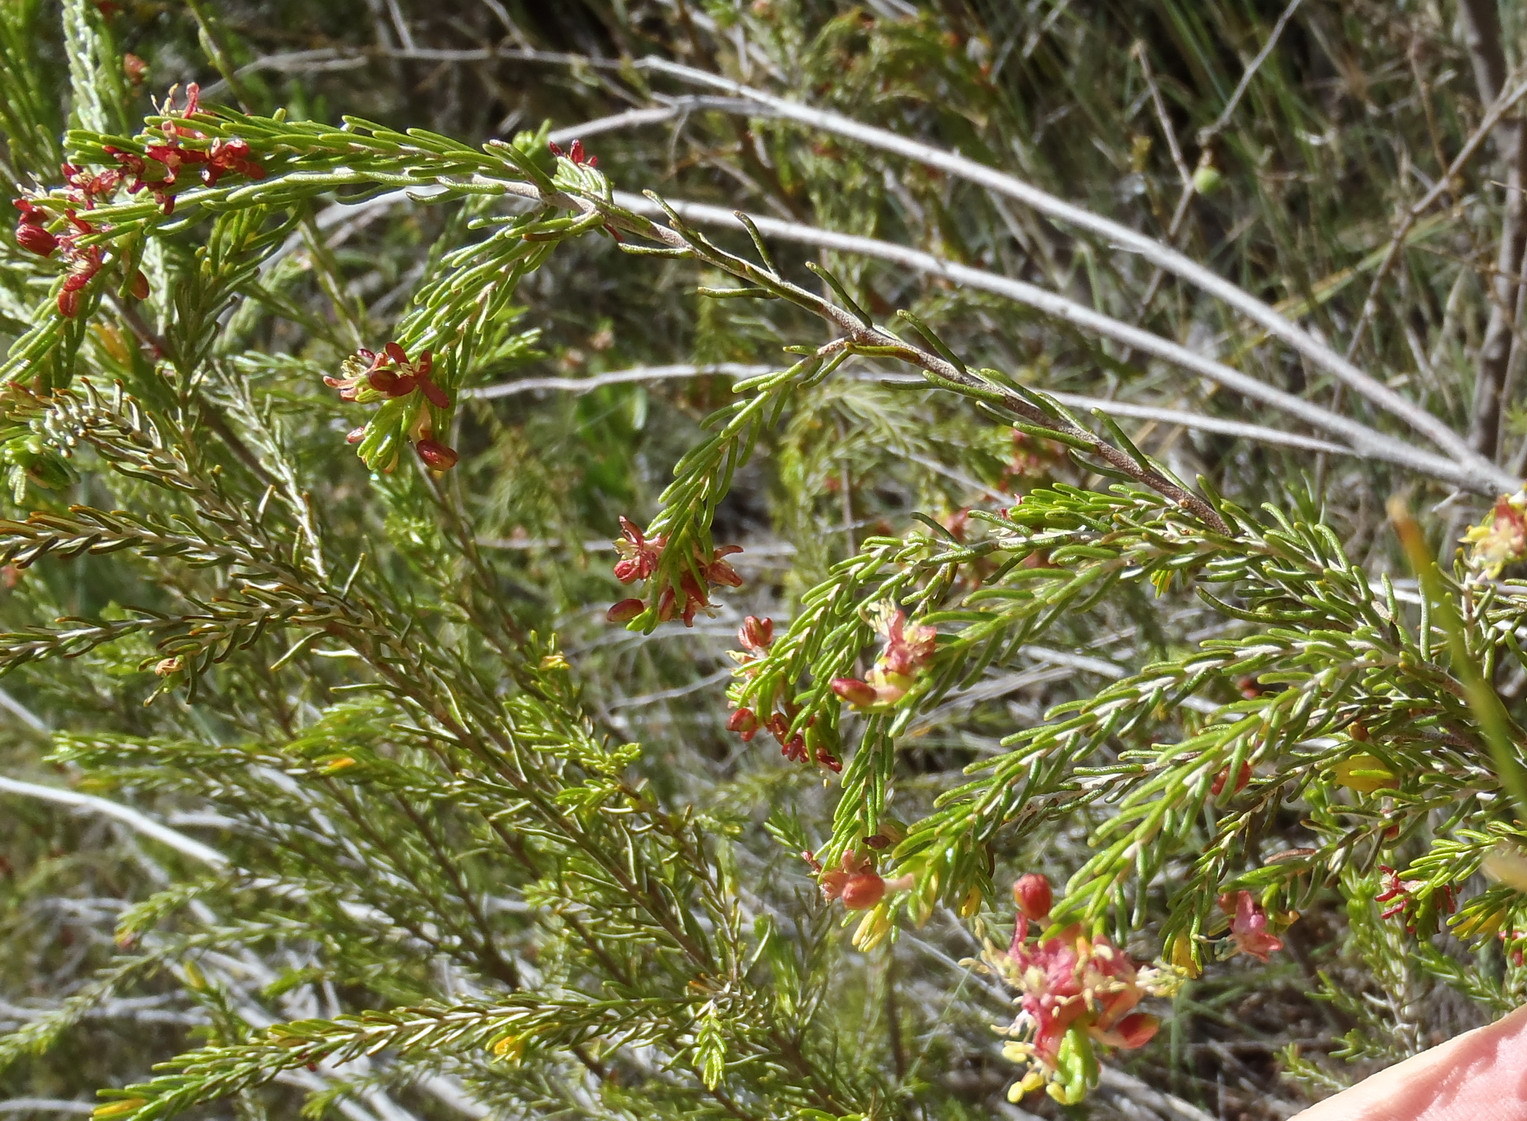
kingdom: Plantae
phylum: Tracheophyta
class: Magnoliopsida
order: Malvales
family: Thymelaeaceae
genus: Passerina
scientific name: Passerina obtusifolia
